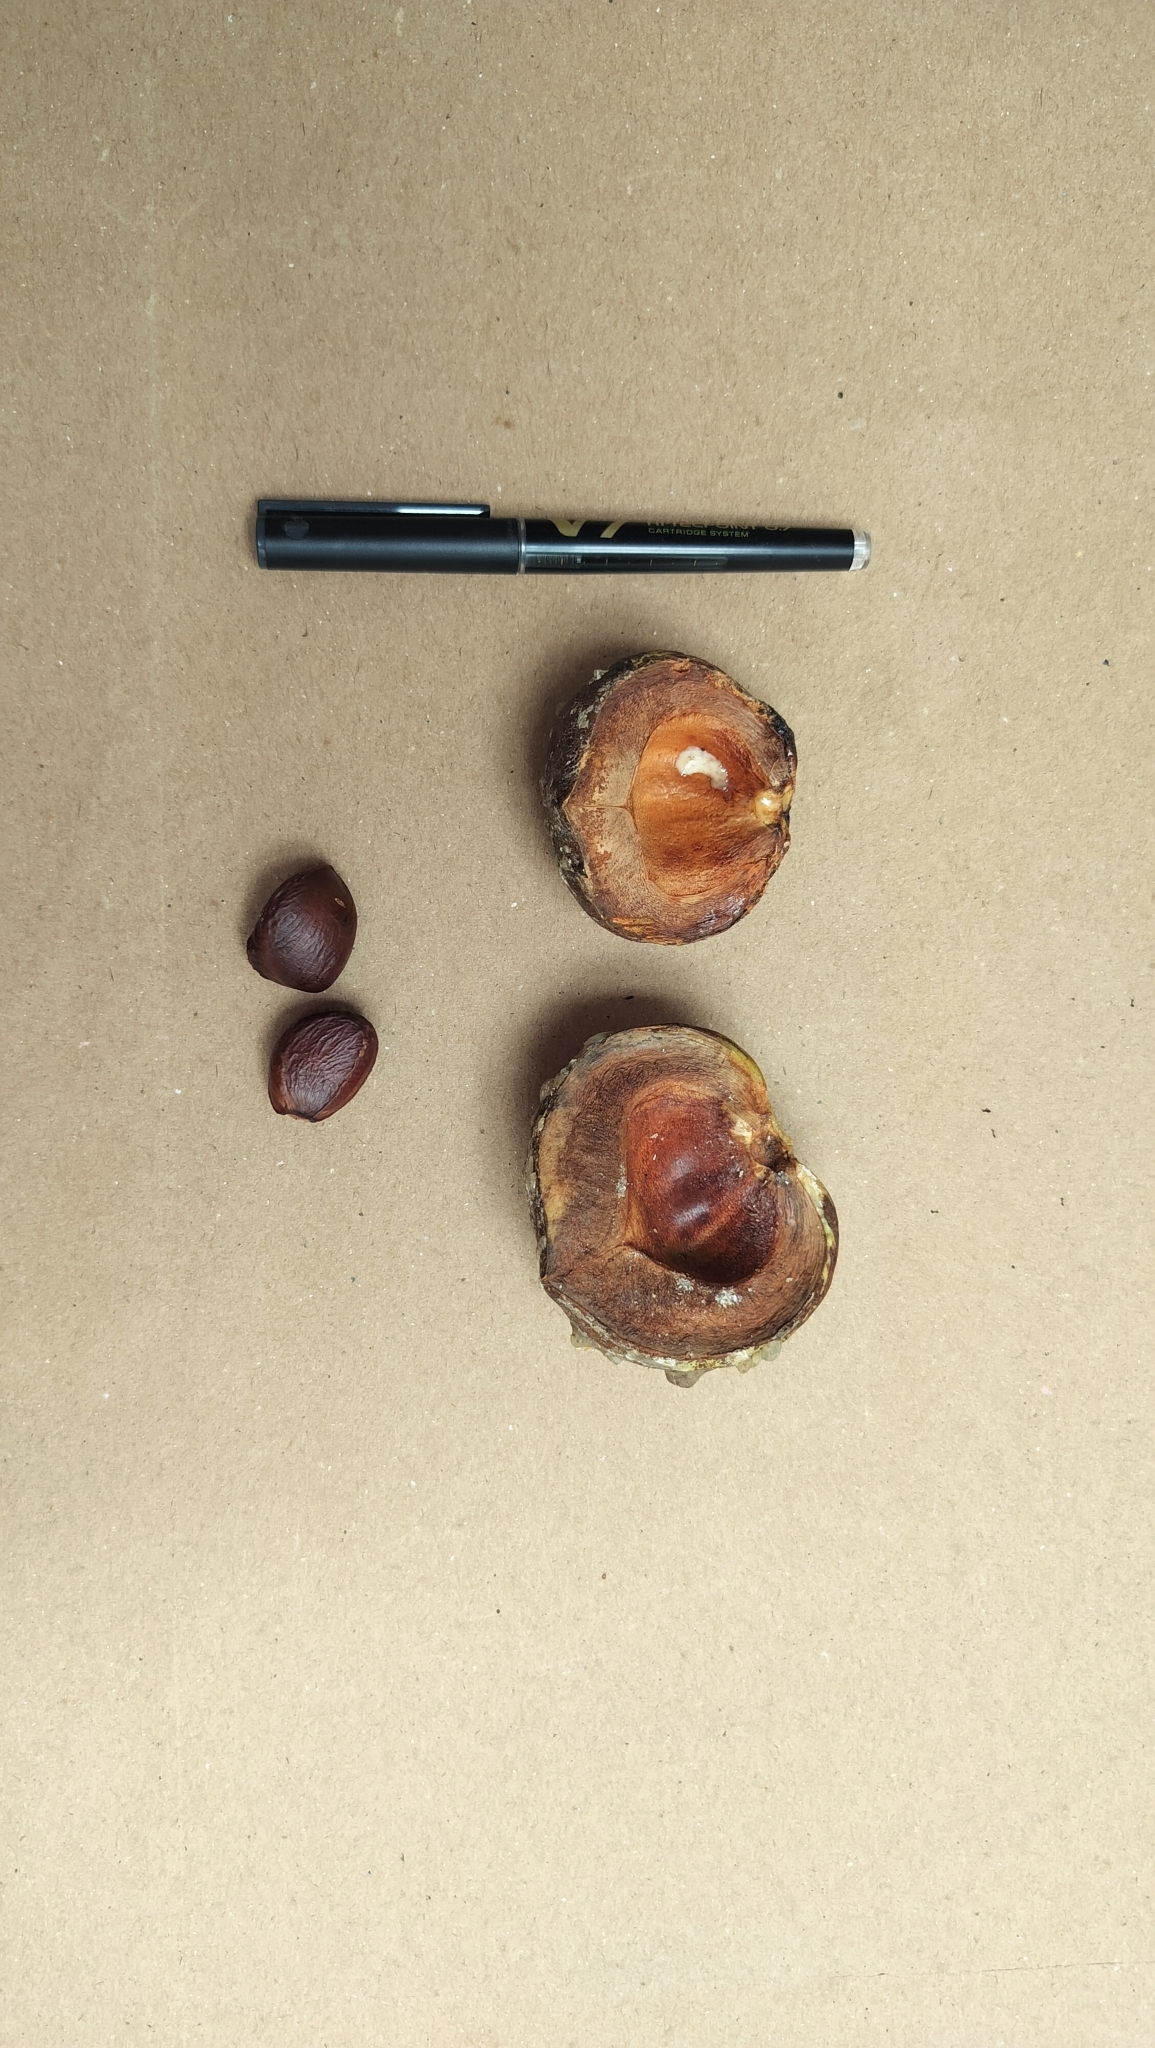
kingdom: Plantae
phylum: Tracheophyta
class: Magnoliopsida
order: Malpighiales
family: Calophyllaceae
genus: Mesua
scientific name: Mesua ferrea
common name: Mesua
